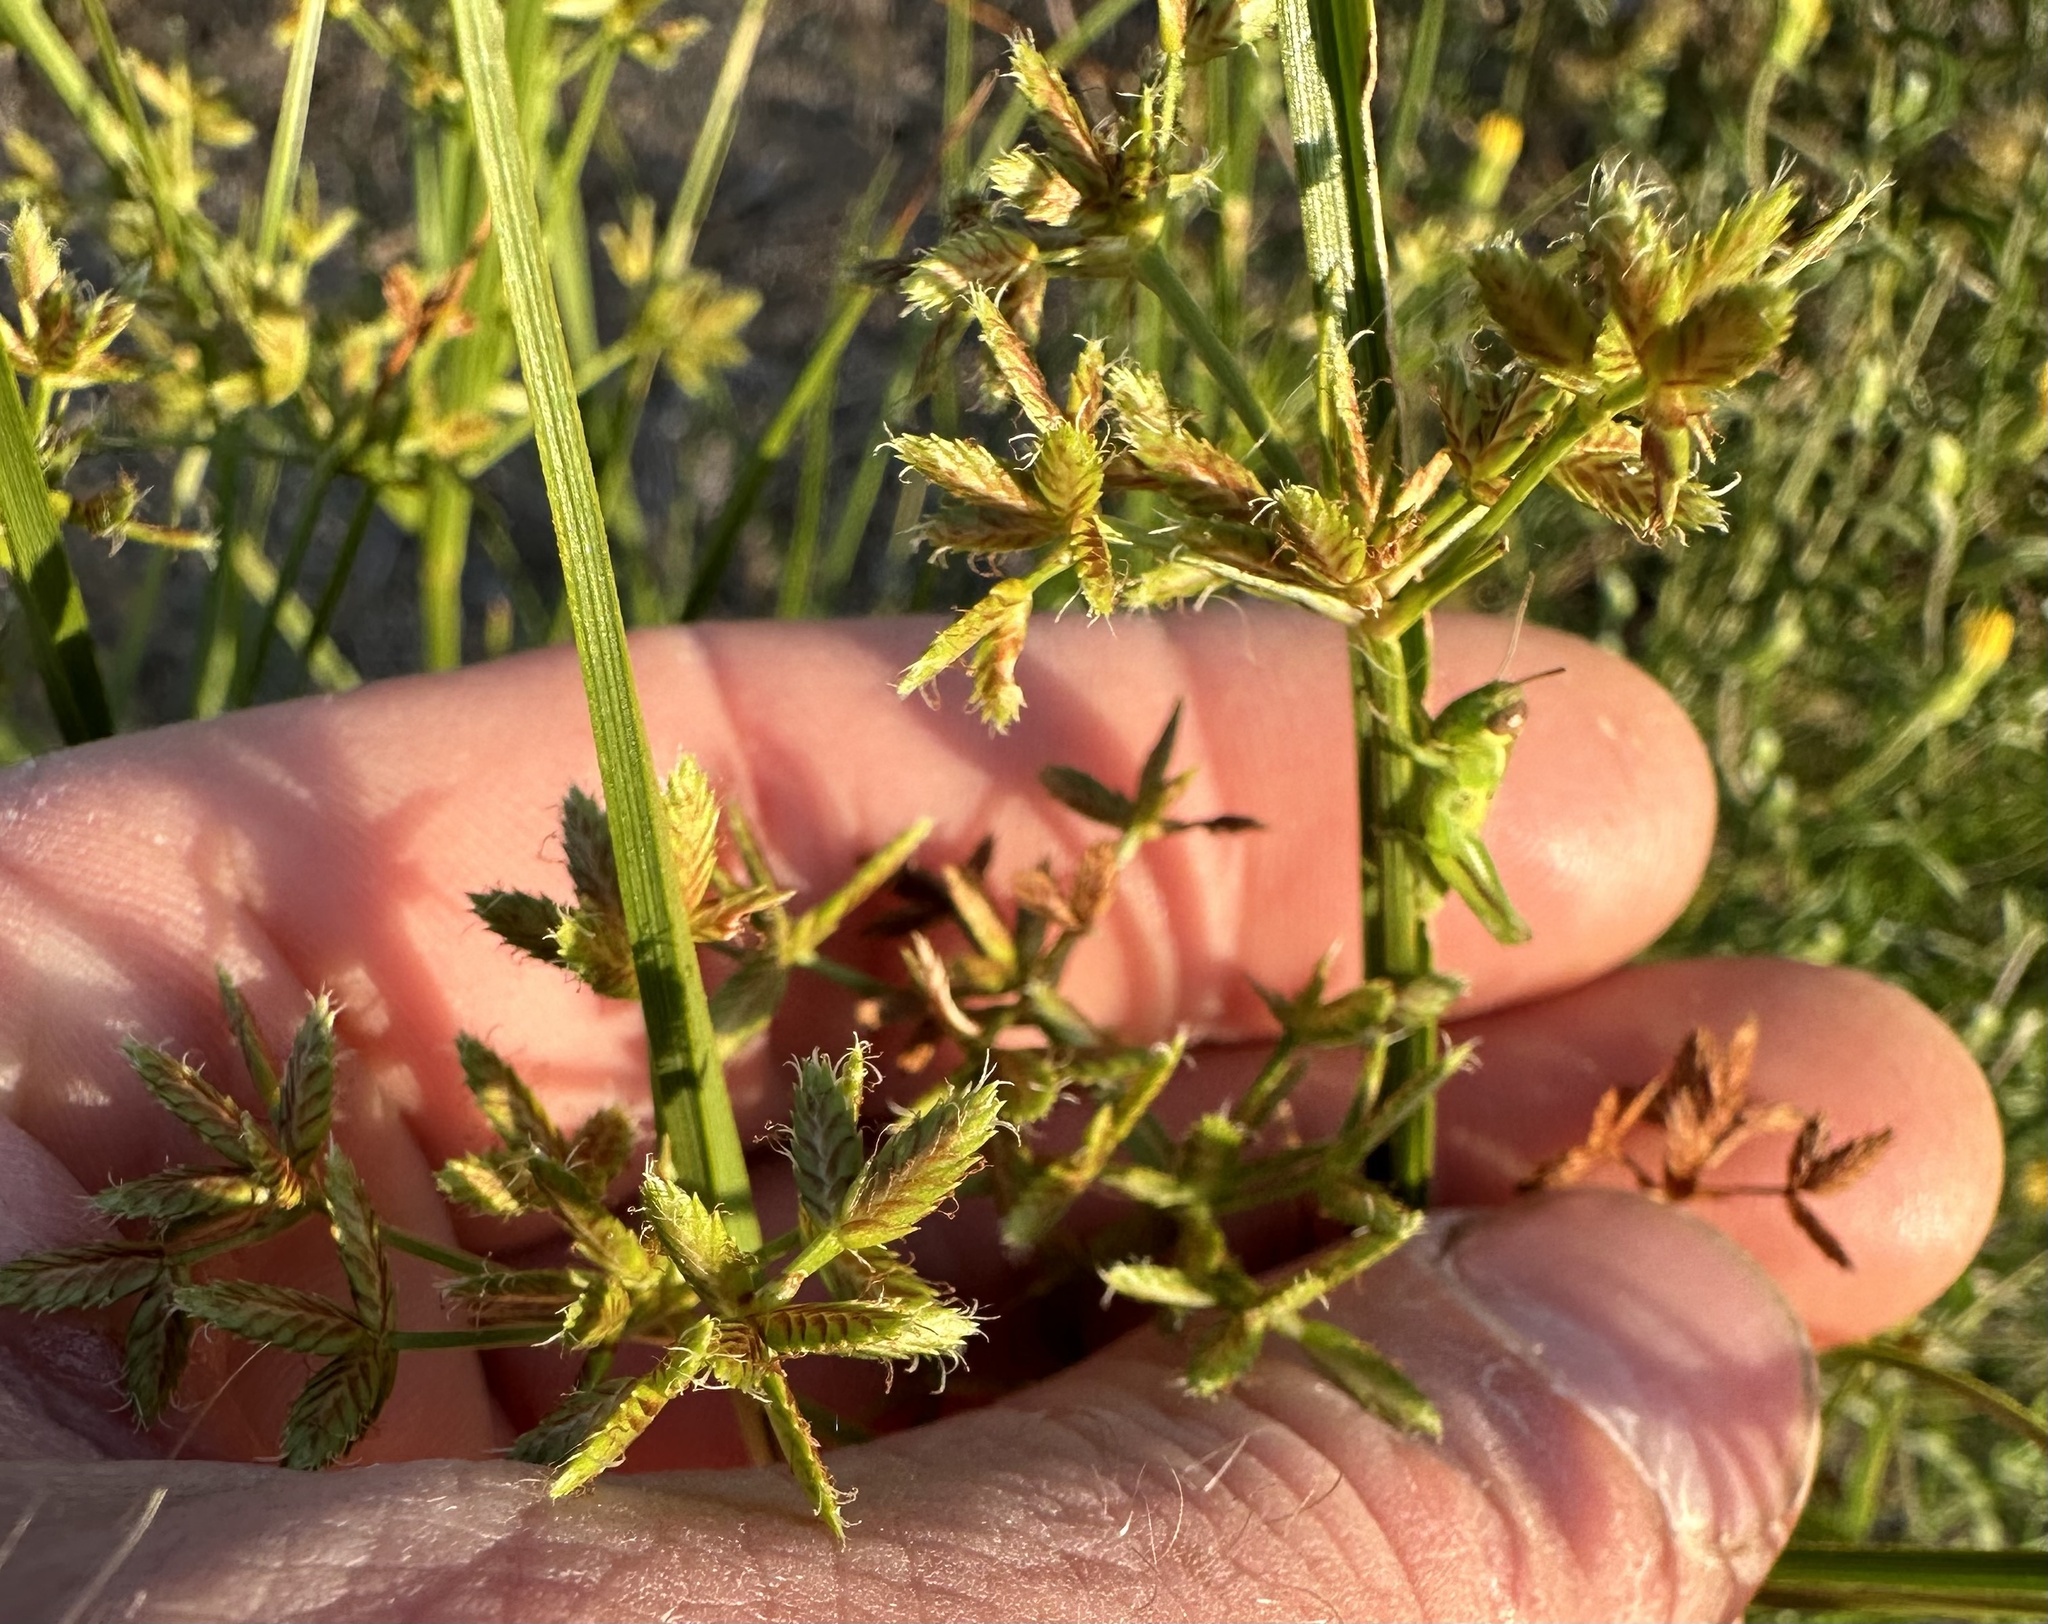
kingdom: Plantae
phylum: Tracheophyta
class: Liliopsida
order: Poales
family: Cyperaceae
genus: Cyperus
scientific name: Cyperus dentatus
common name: Dentate umbrella sedge
